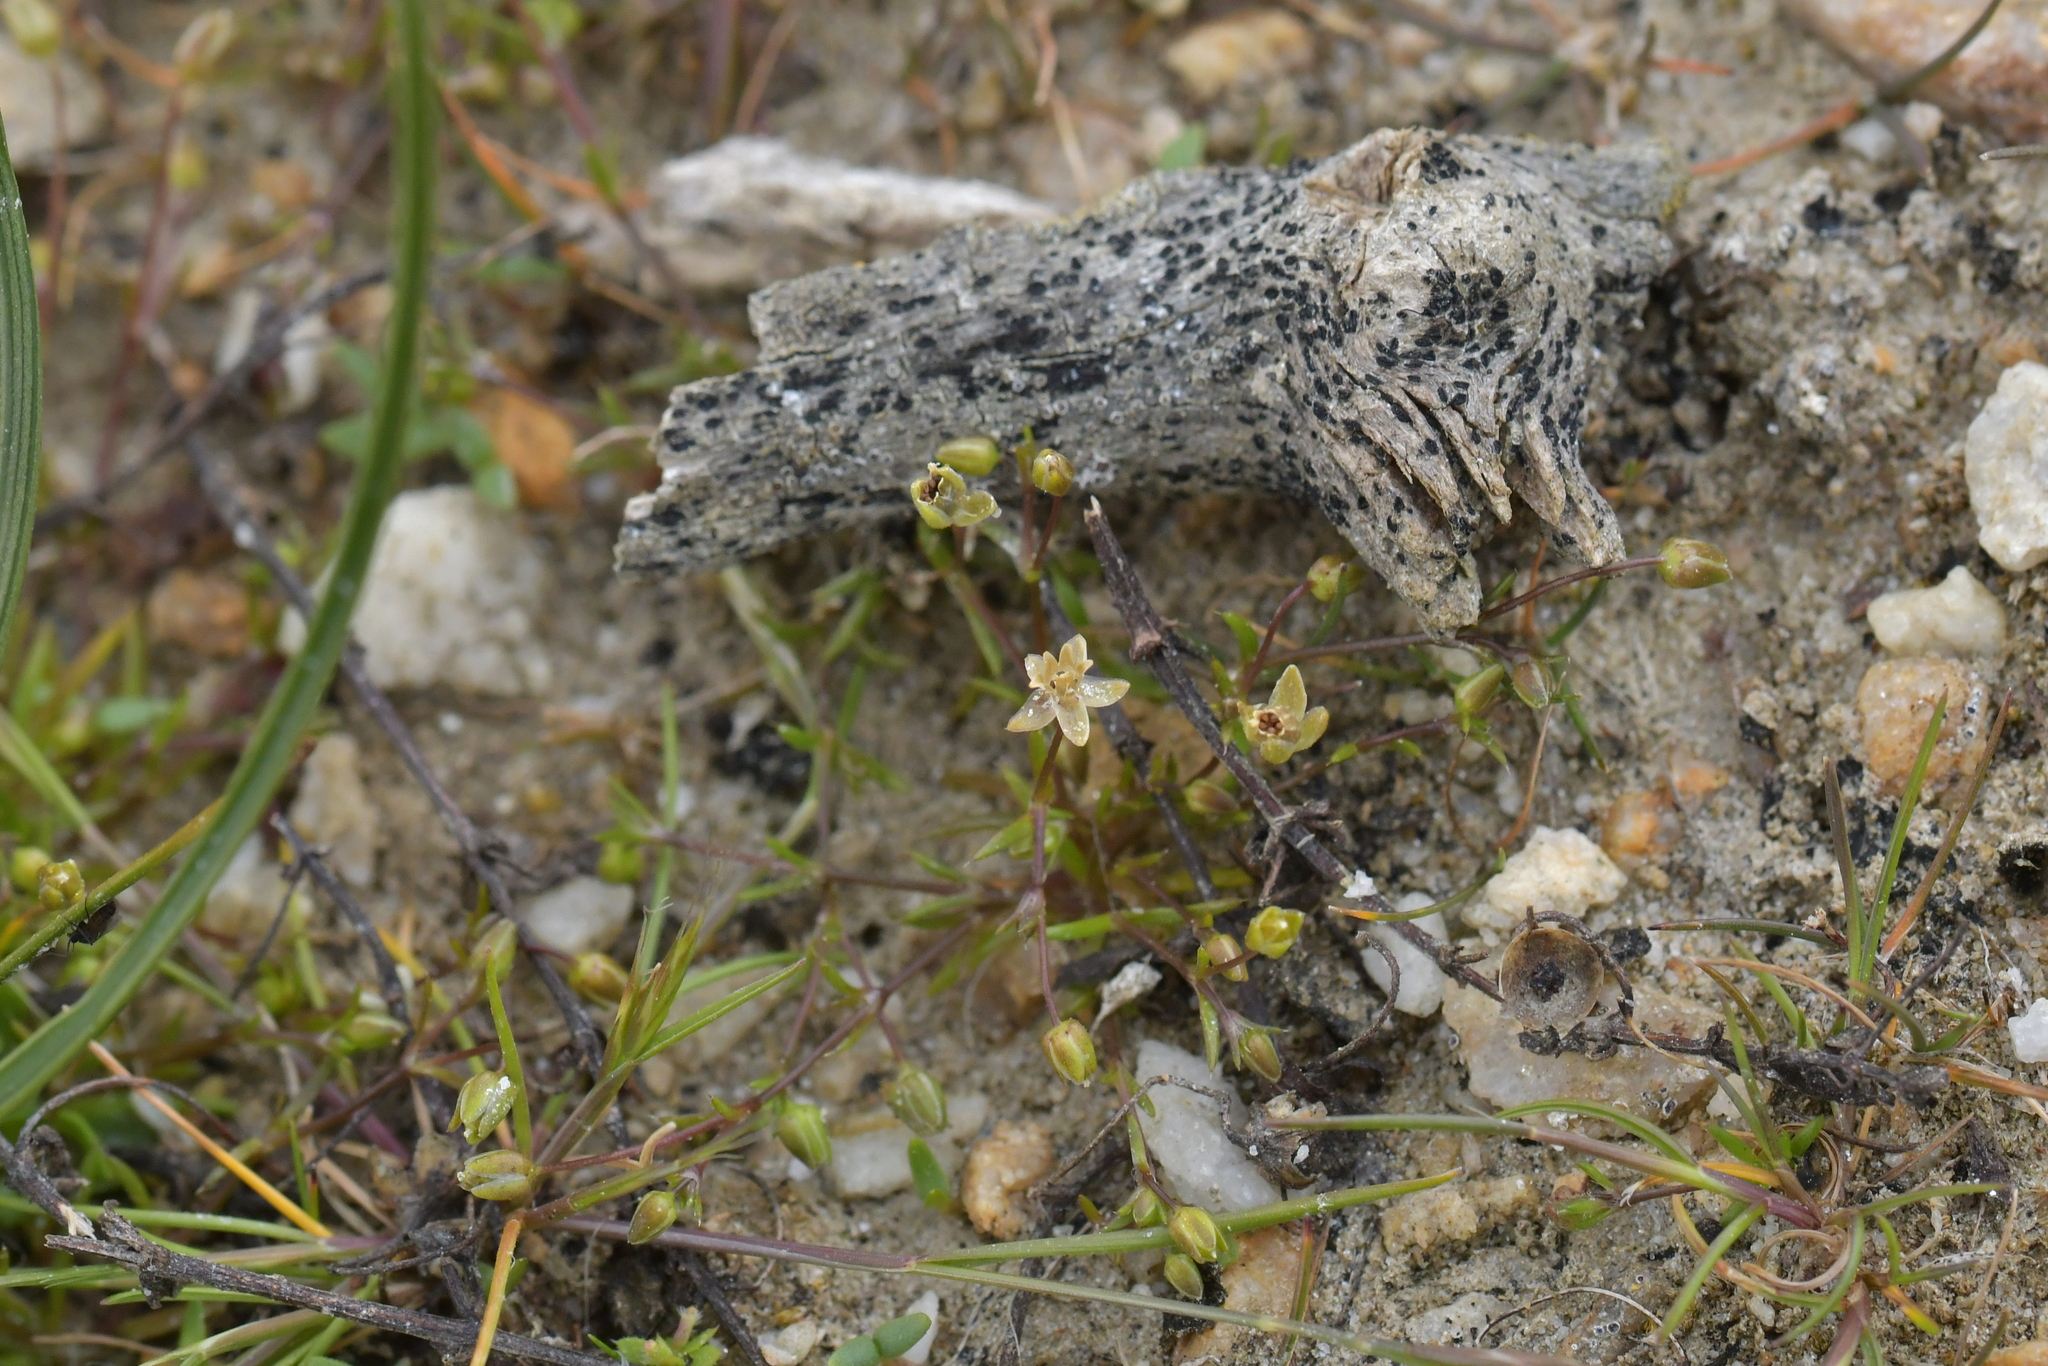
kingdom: Plantae
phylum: Tracheophyta
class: Magnoliopsida
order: Caryophyllales
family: Caryophyllaceae
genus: Sagina
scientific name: Sagina apetala
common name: Annual pearlwort
